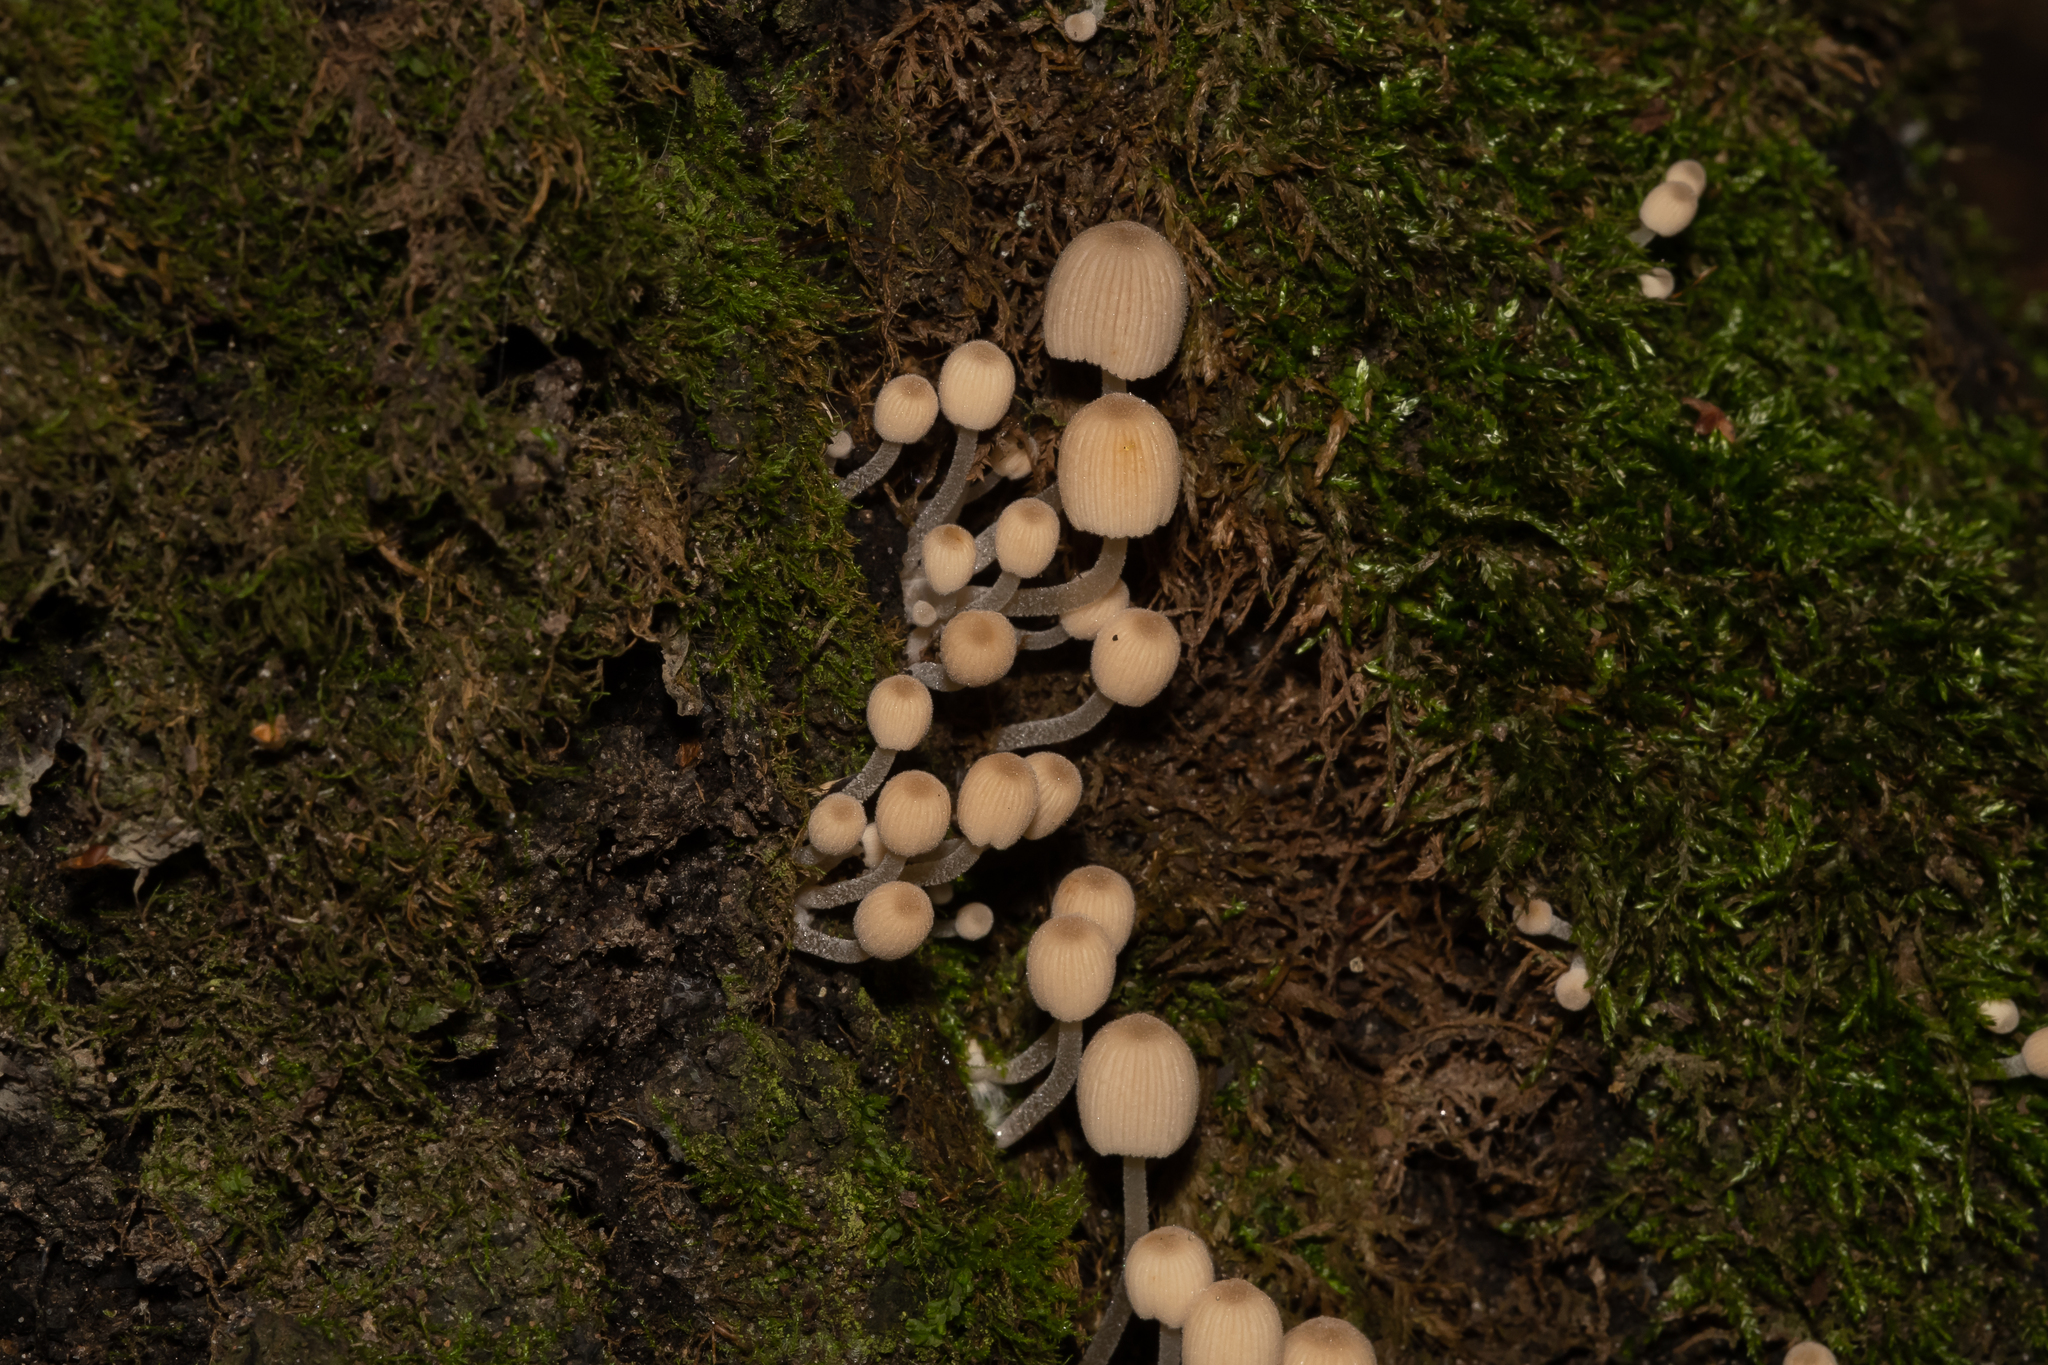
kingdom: Fungi
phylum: Basidiomycota
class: Agaricomycetes
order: Agaricales
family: Psathyrellaceae
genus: Coprinellus
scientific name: Coprinellus disseminatus
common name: Fairies' bonnets
